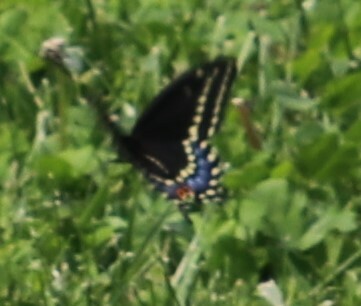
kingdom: Animalia
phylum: Arthropoda
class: Insecta
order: Lepidoptera
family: Papilionidae
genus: Papilio
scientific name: Papilio polyxenes
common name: Black swallowtail
